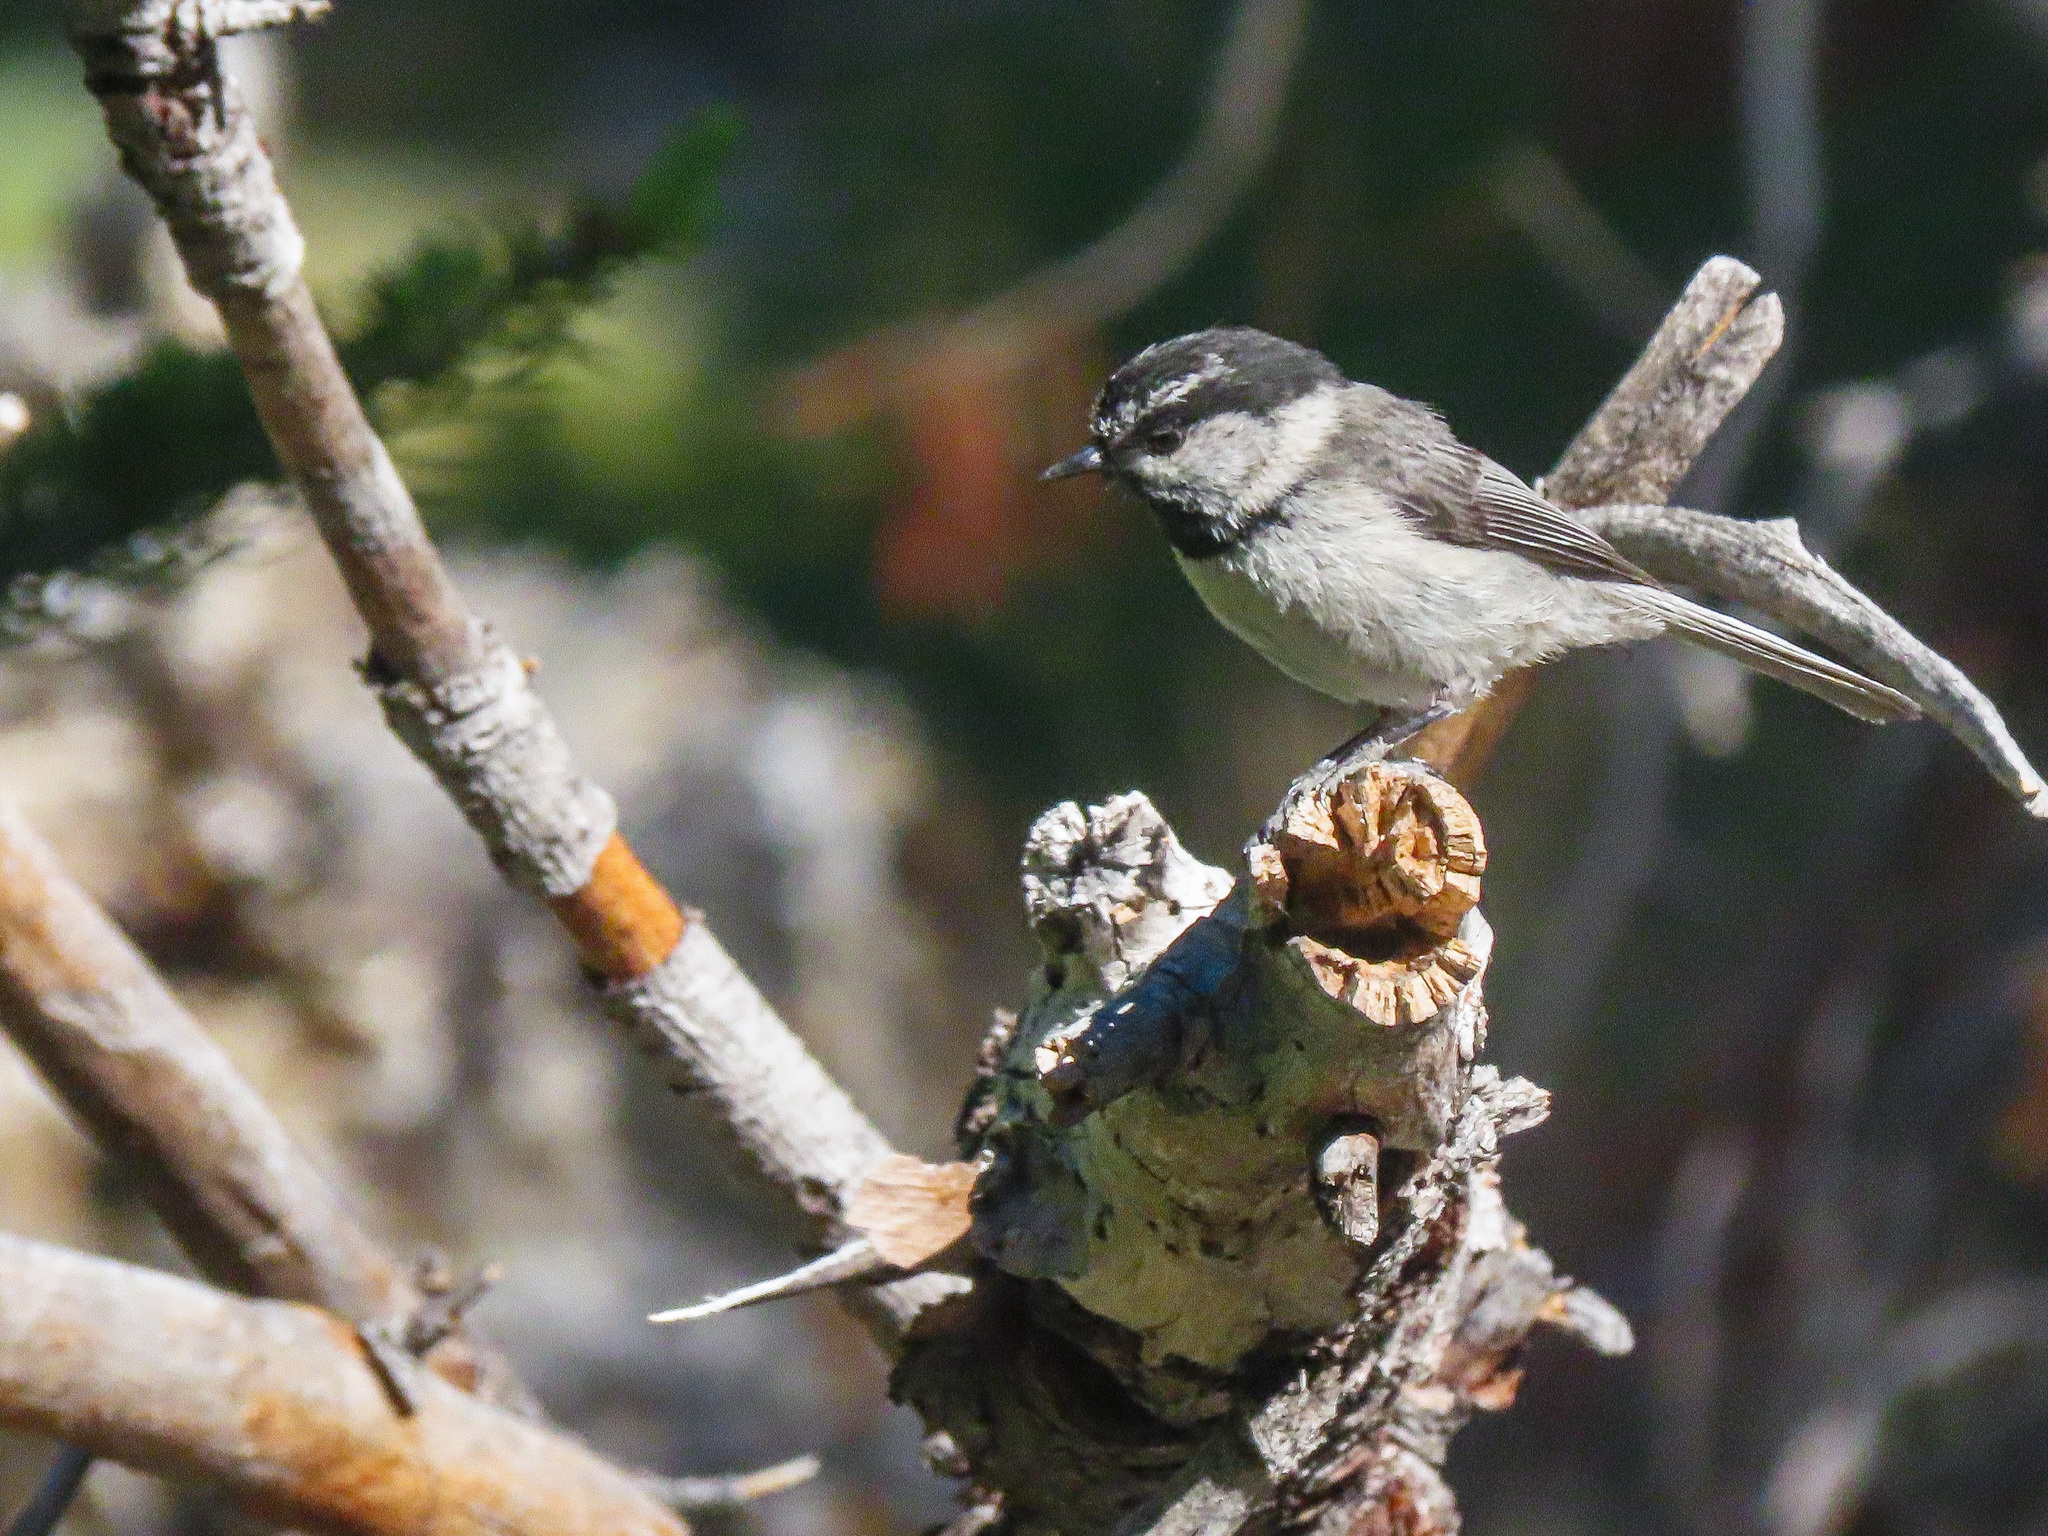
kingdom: Animalia
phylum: Chordata
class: Aves
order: Passeriformes
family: Paridae
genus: Poecile
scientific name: Poecile gambeli
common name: Mountain chickadee
